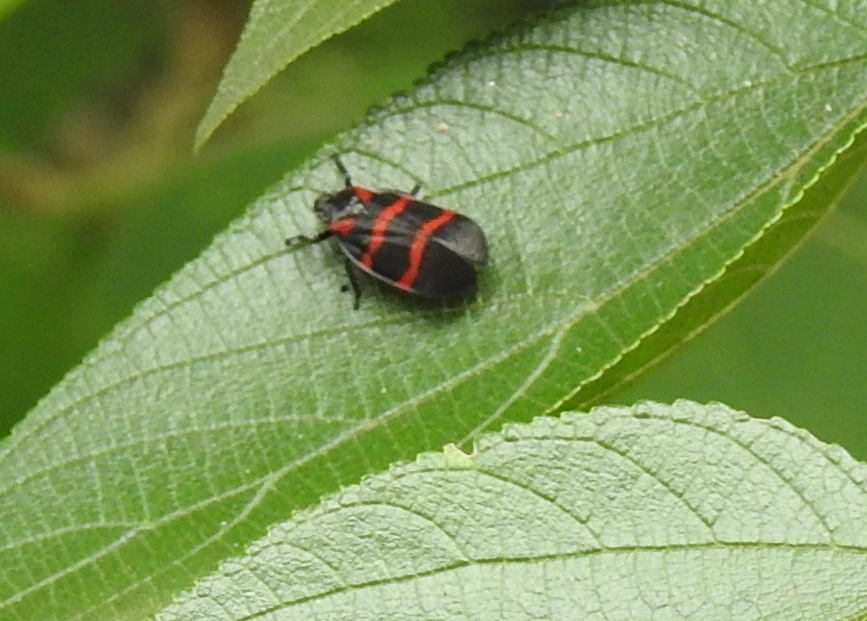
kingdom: Animalia
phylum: Arthropoda
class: Insecta
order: Hemiptera
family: Cercopidae
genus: Huaina
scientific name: Huaina inca
